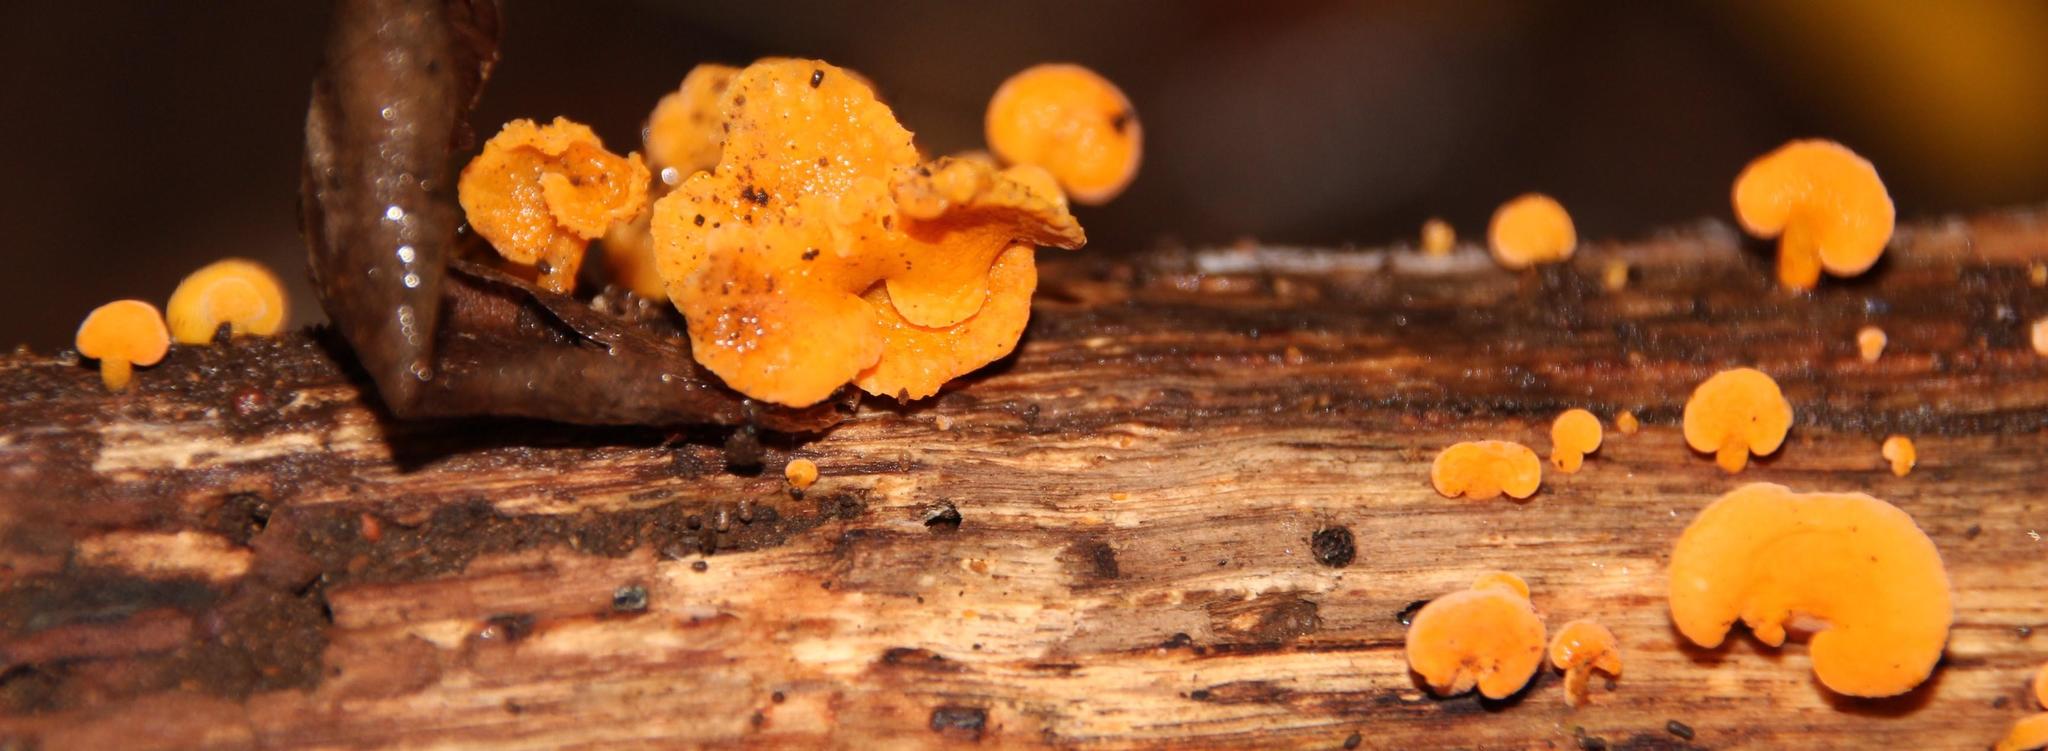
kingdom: Fungi
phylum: Basidiomycota
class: Agaricomycetes
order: Agaricales
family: Mycenaceae
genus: Favolaschia
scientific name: Favolaschia thwaitesii
